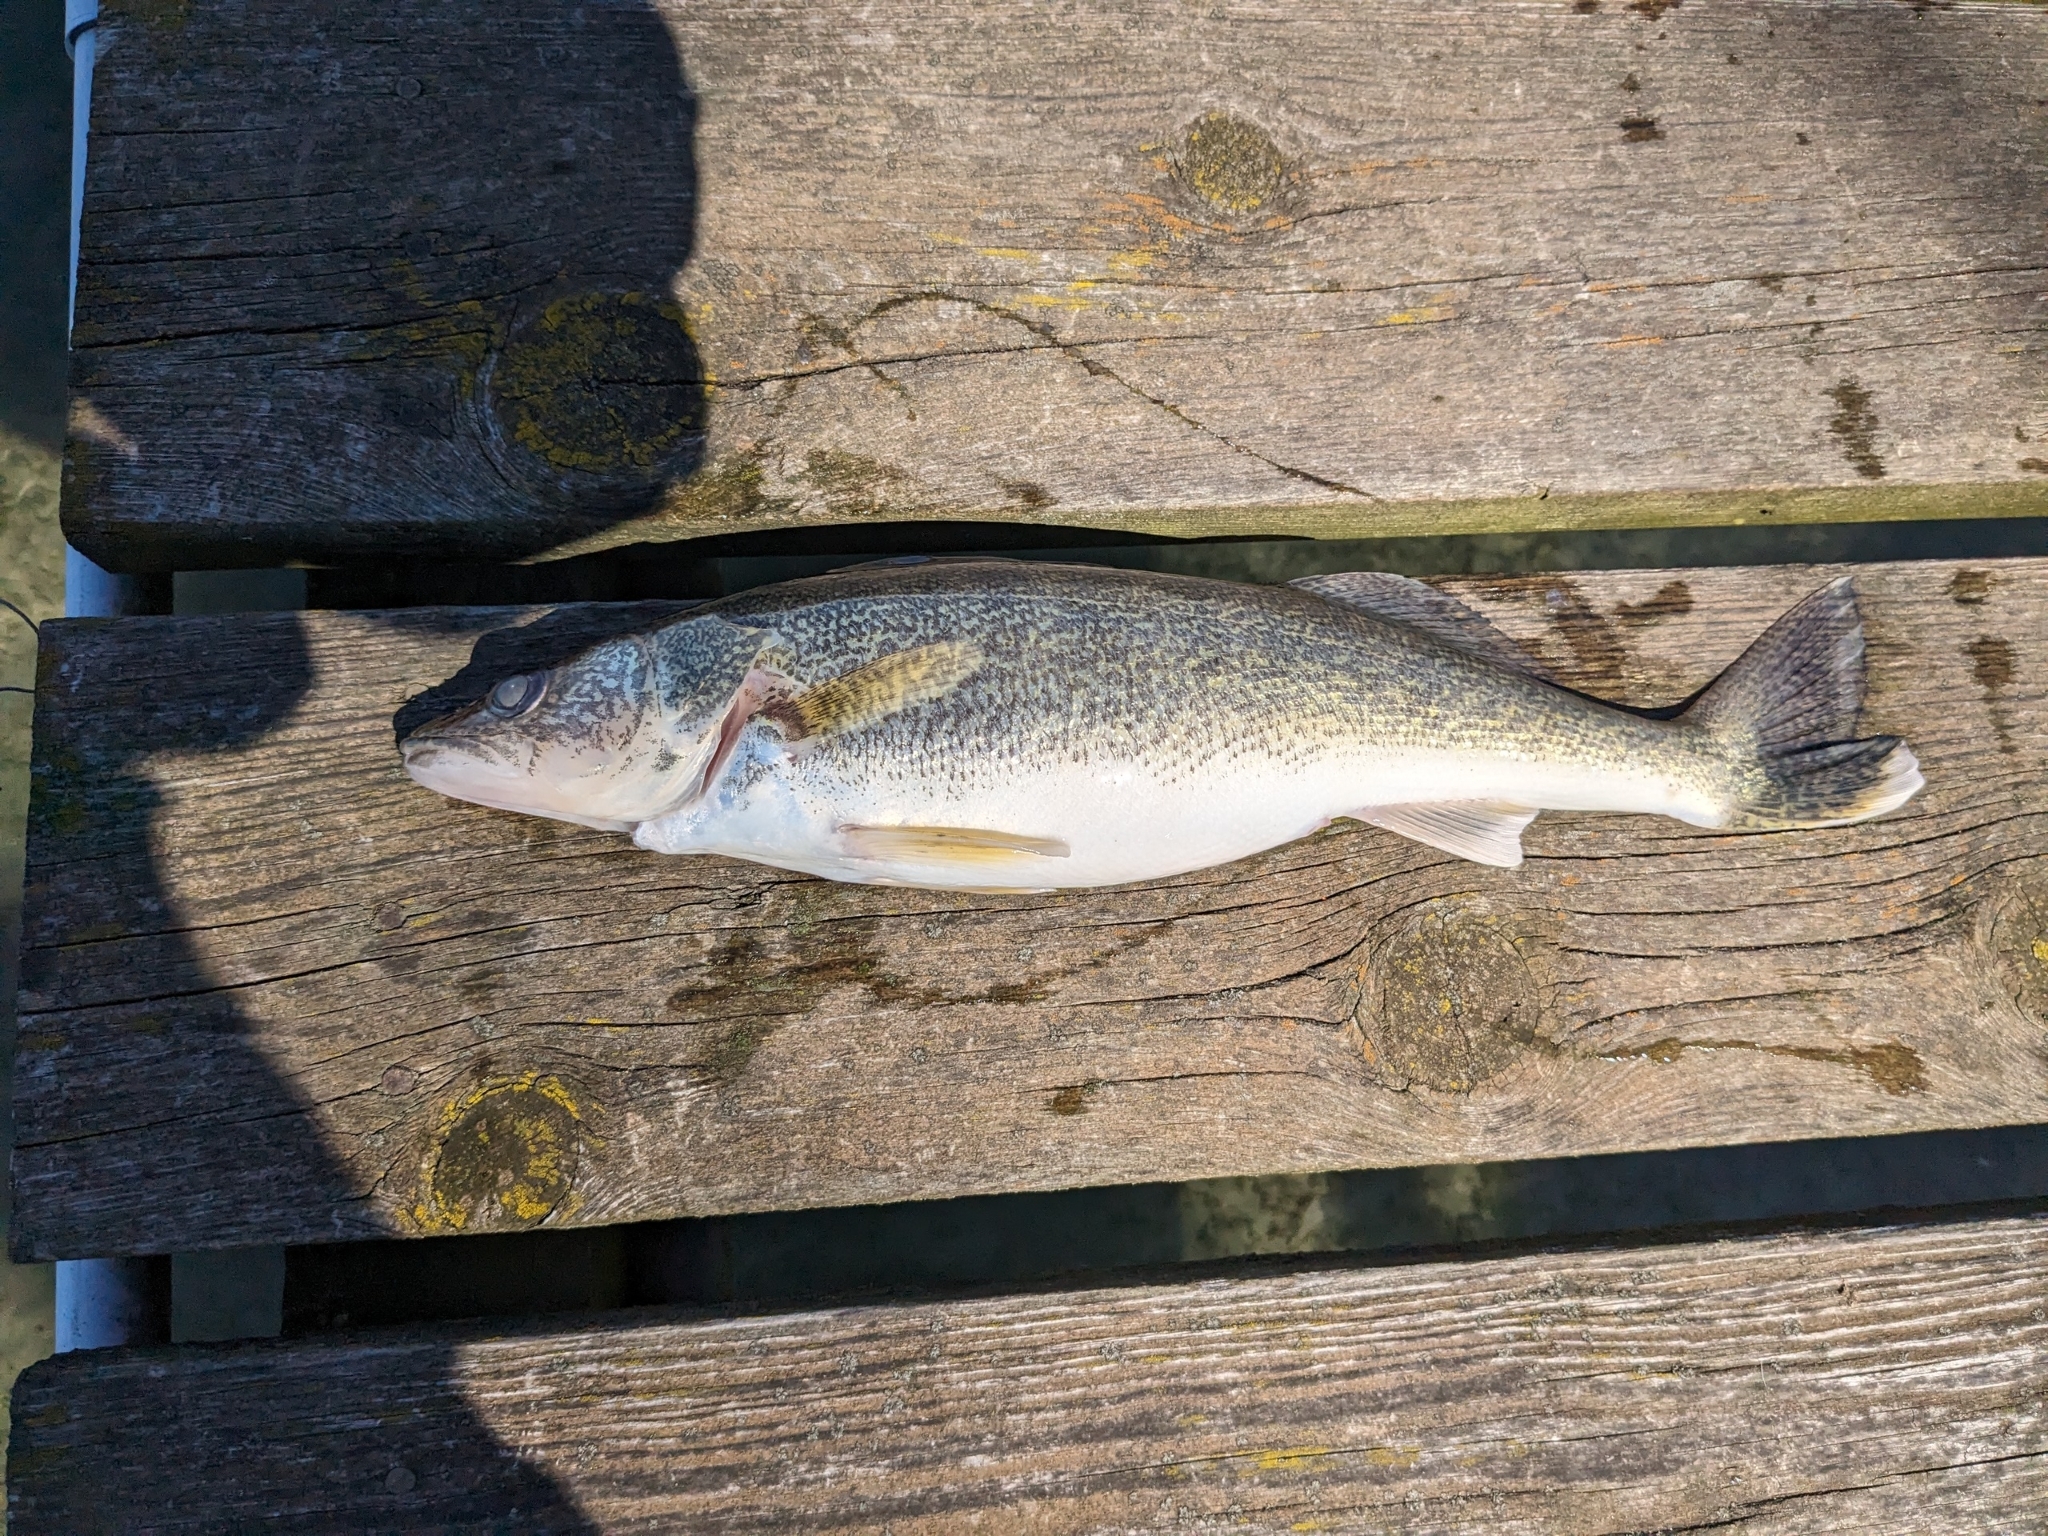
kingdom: Animalia
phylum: Chordata
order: Perciformes
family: Percidae
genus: Sander
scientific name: Sander vitreus
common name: Walleye
